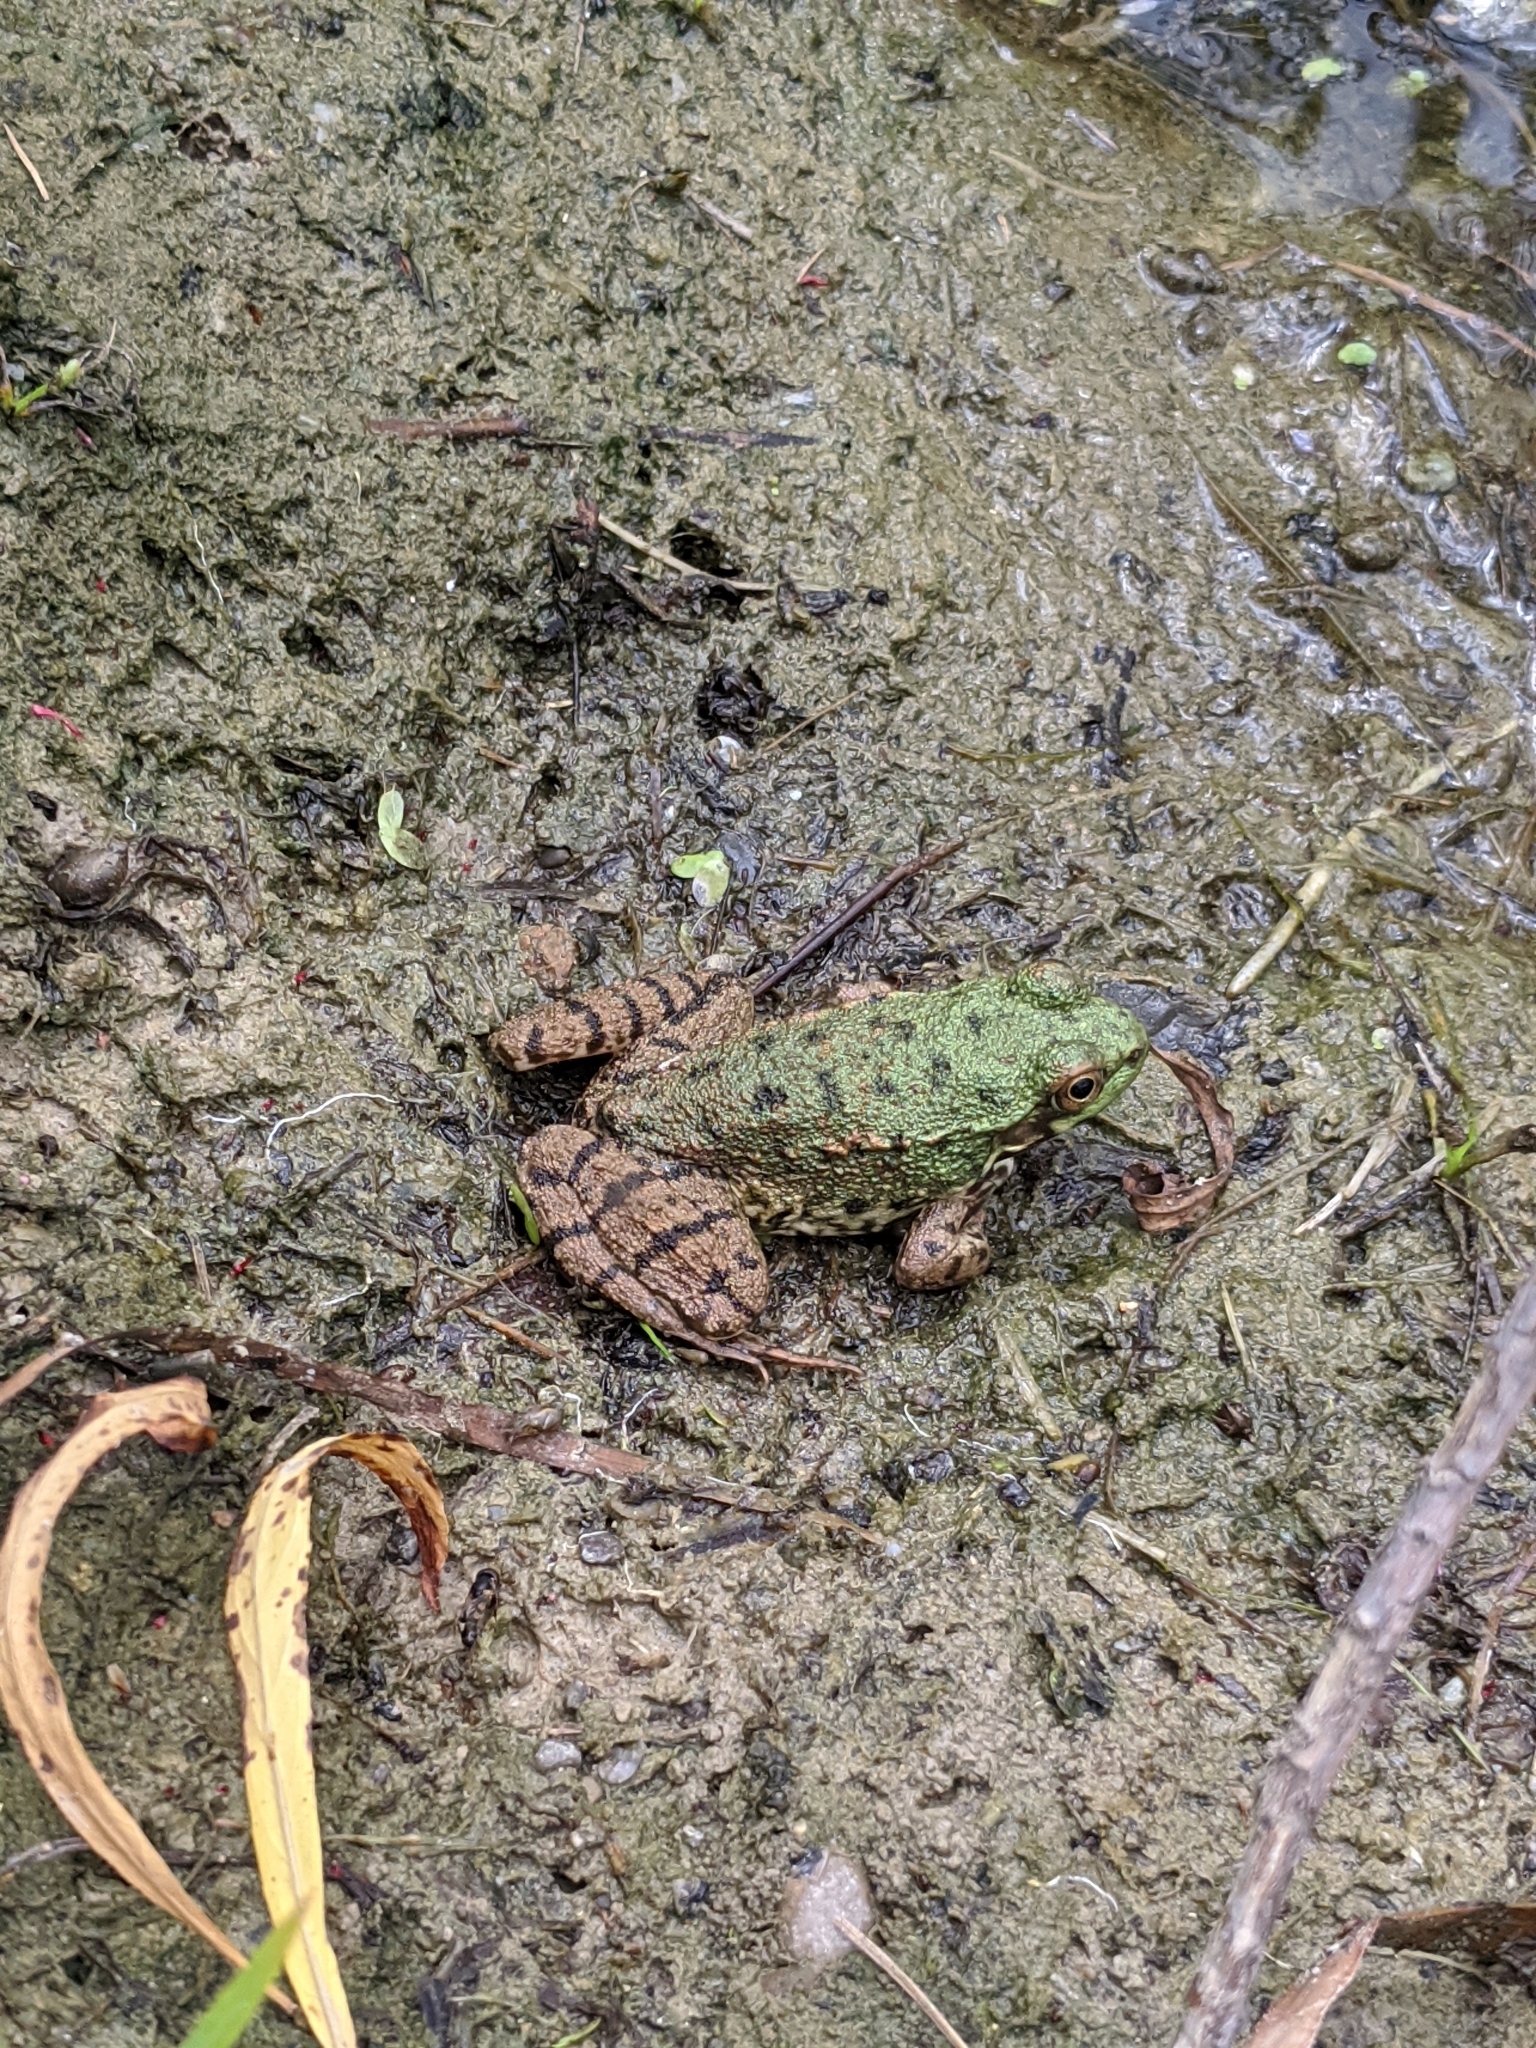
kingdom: Animalia
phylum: Chordata
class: Amphibia
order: Anura
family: Ranidae
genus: Lithobates
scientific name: Lithobates clamitans
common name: Green frog
